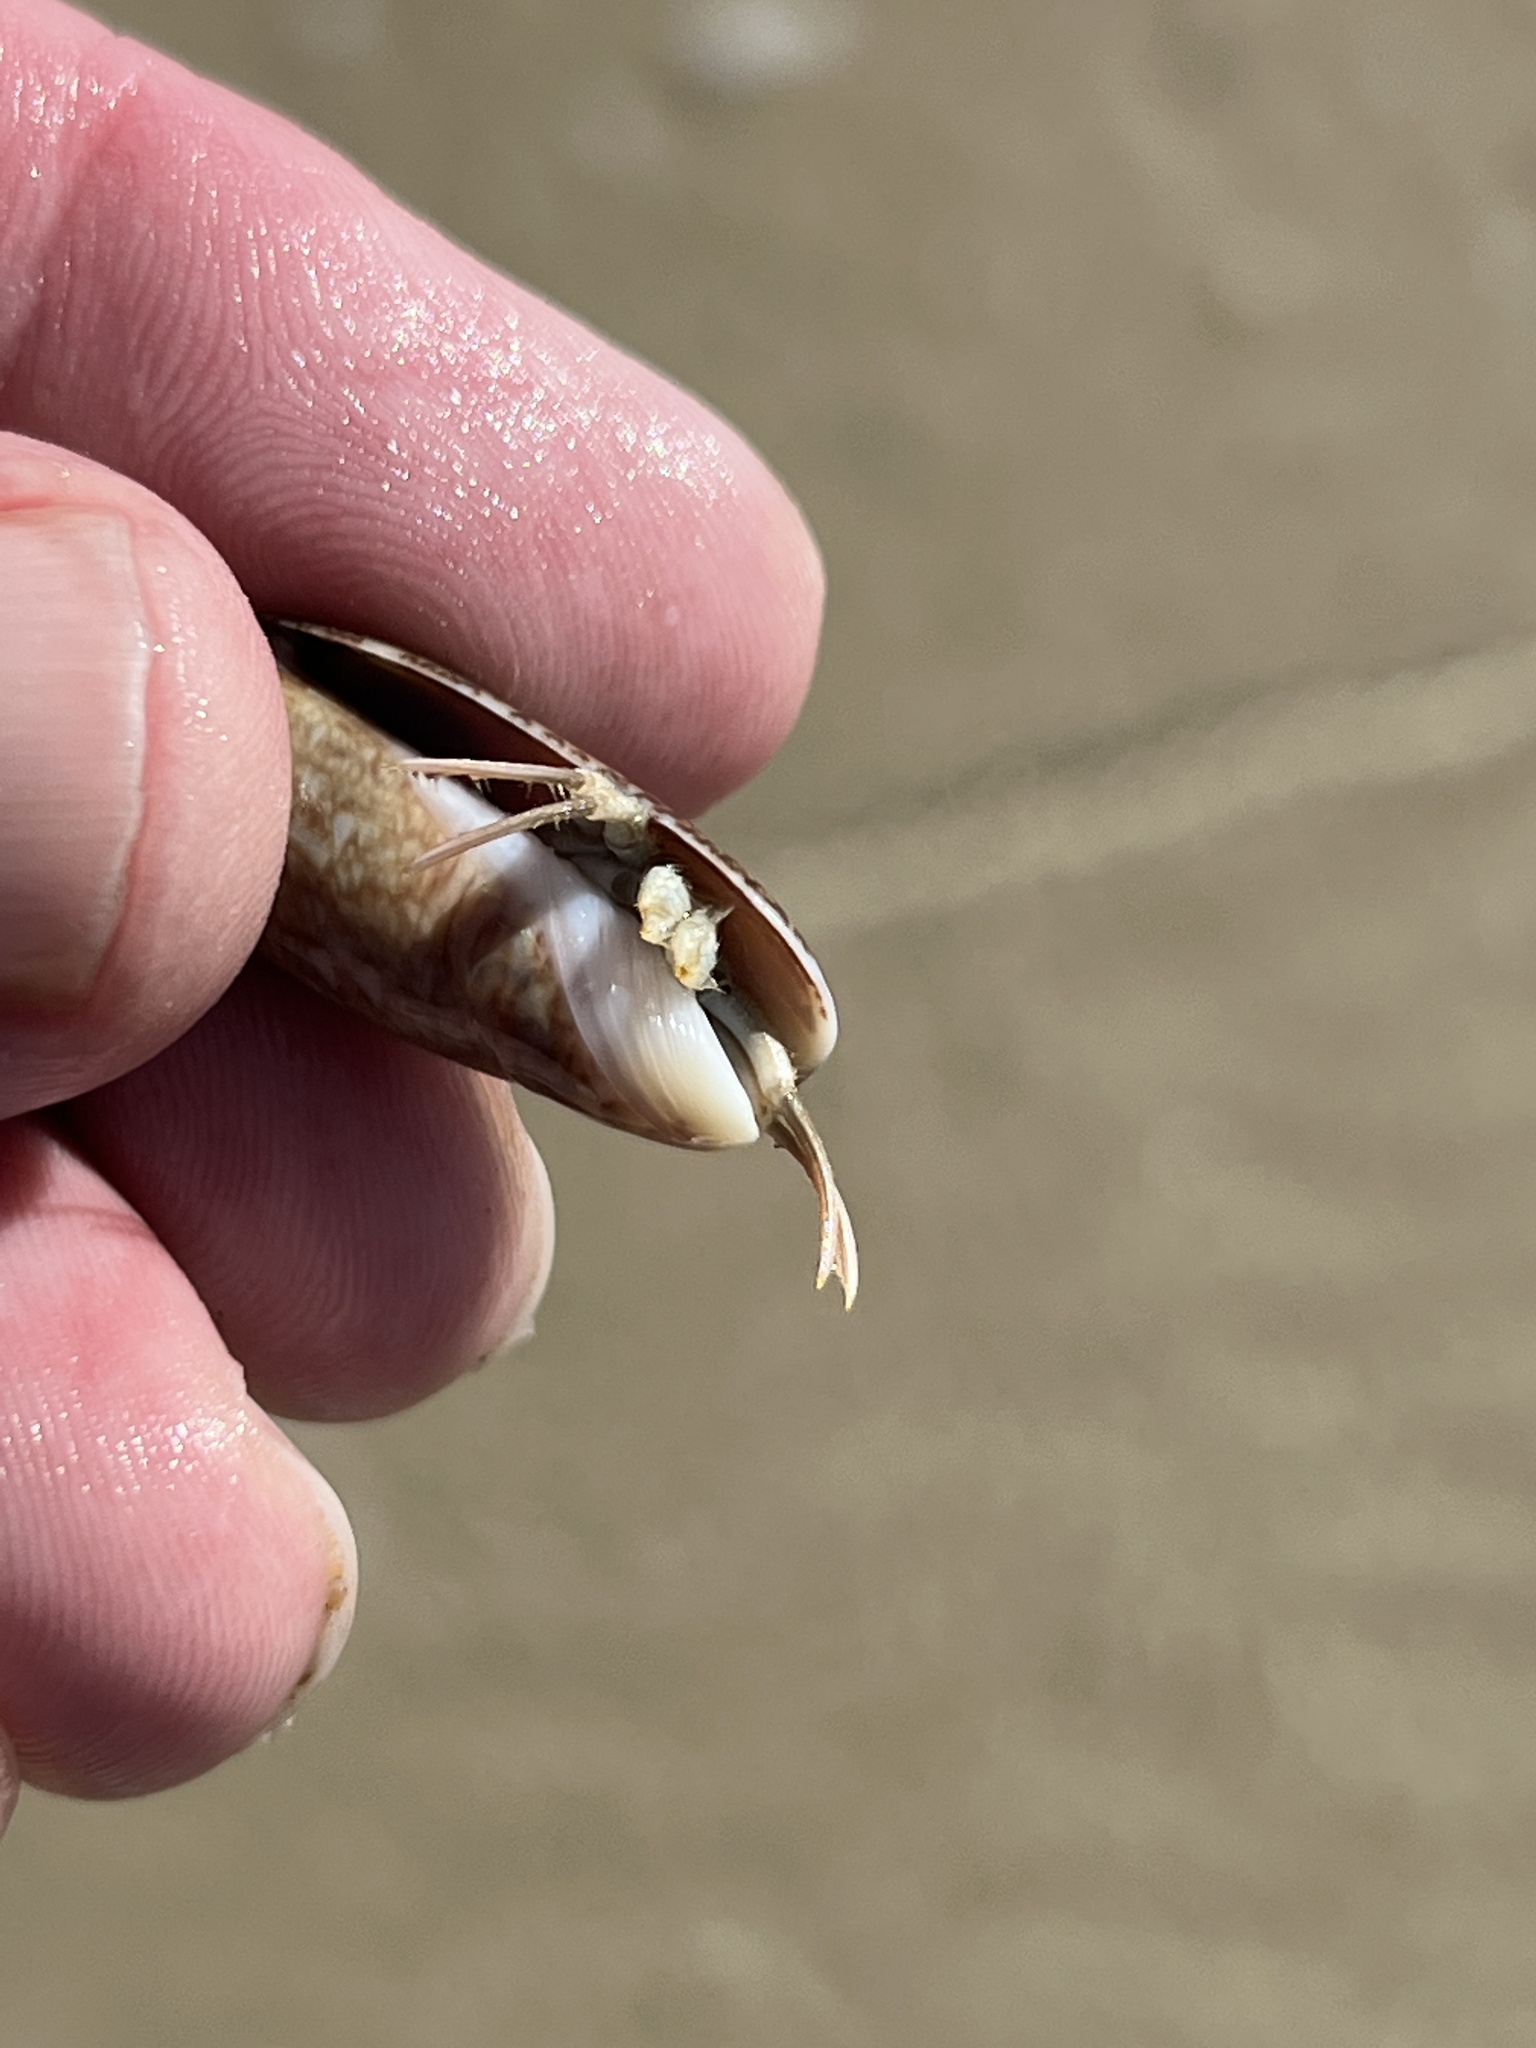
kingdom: Animalia
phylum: Arthropoda
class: Malacostraca
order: Decapoda
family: Diogenidae
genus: Isocheles
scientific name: Isocheles wurdemanni
